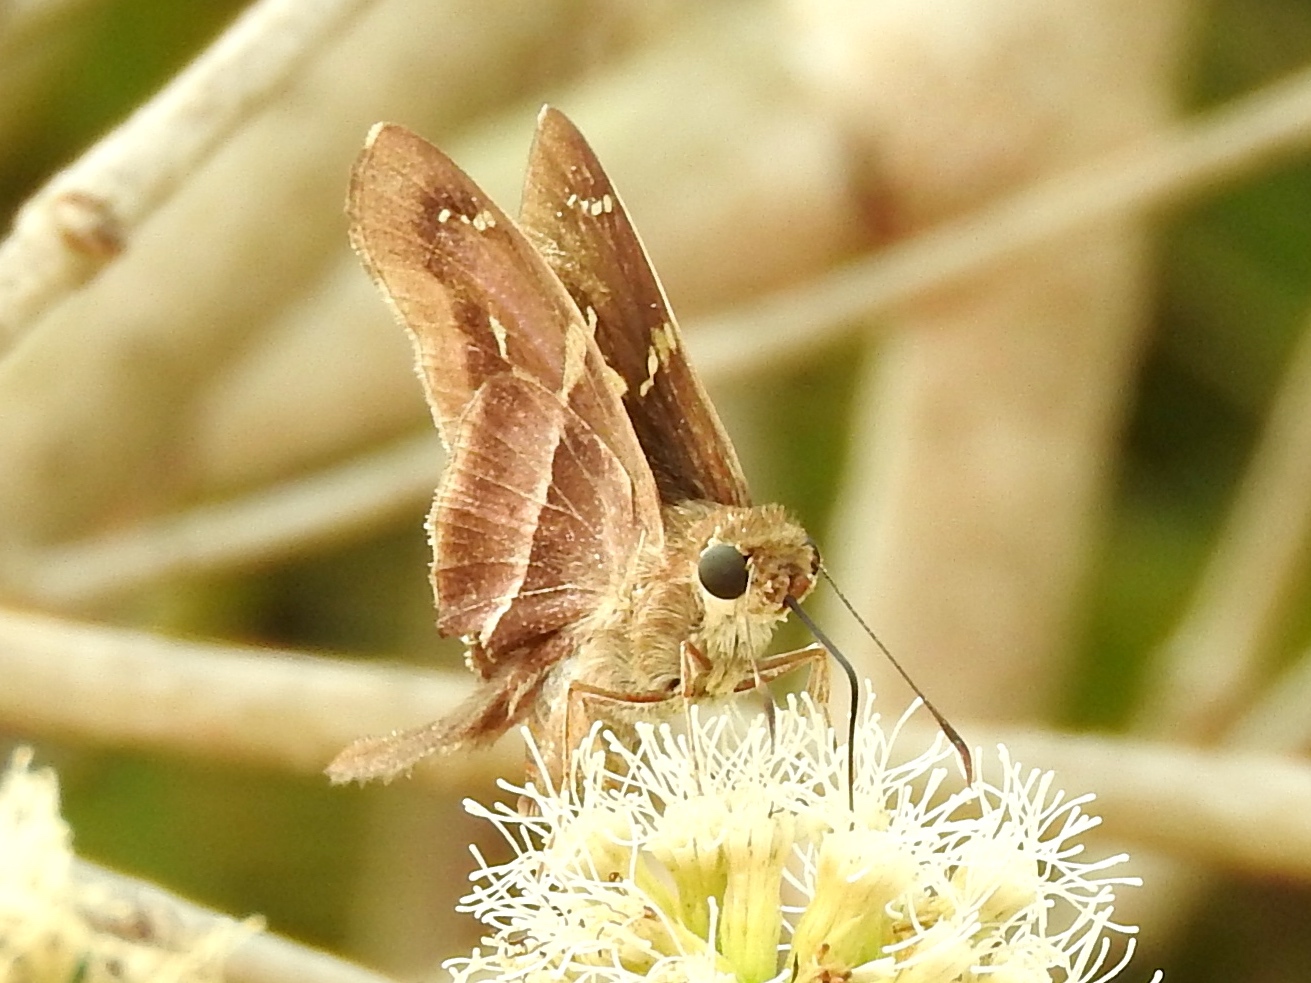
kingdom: Animalia
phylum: Arthropoda
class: Insecta
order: Lepidoptera
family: Hesperiidae
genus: Aguna
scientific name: Aguna metophis
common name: Tailed aguna
